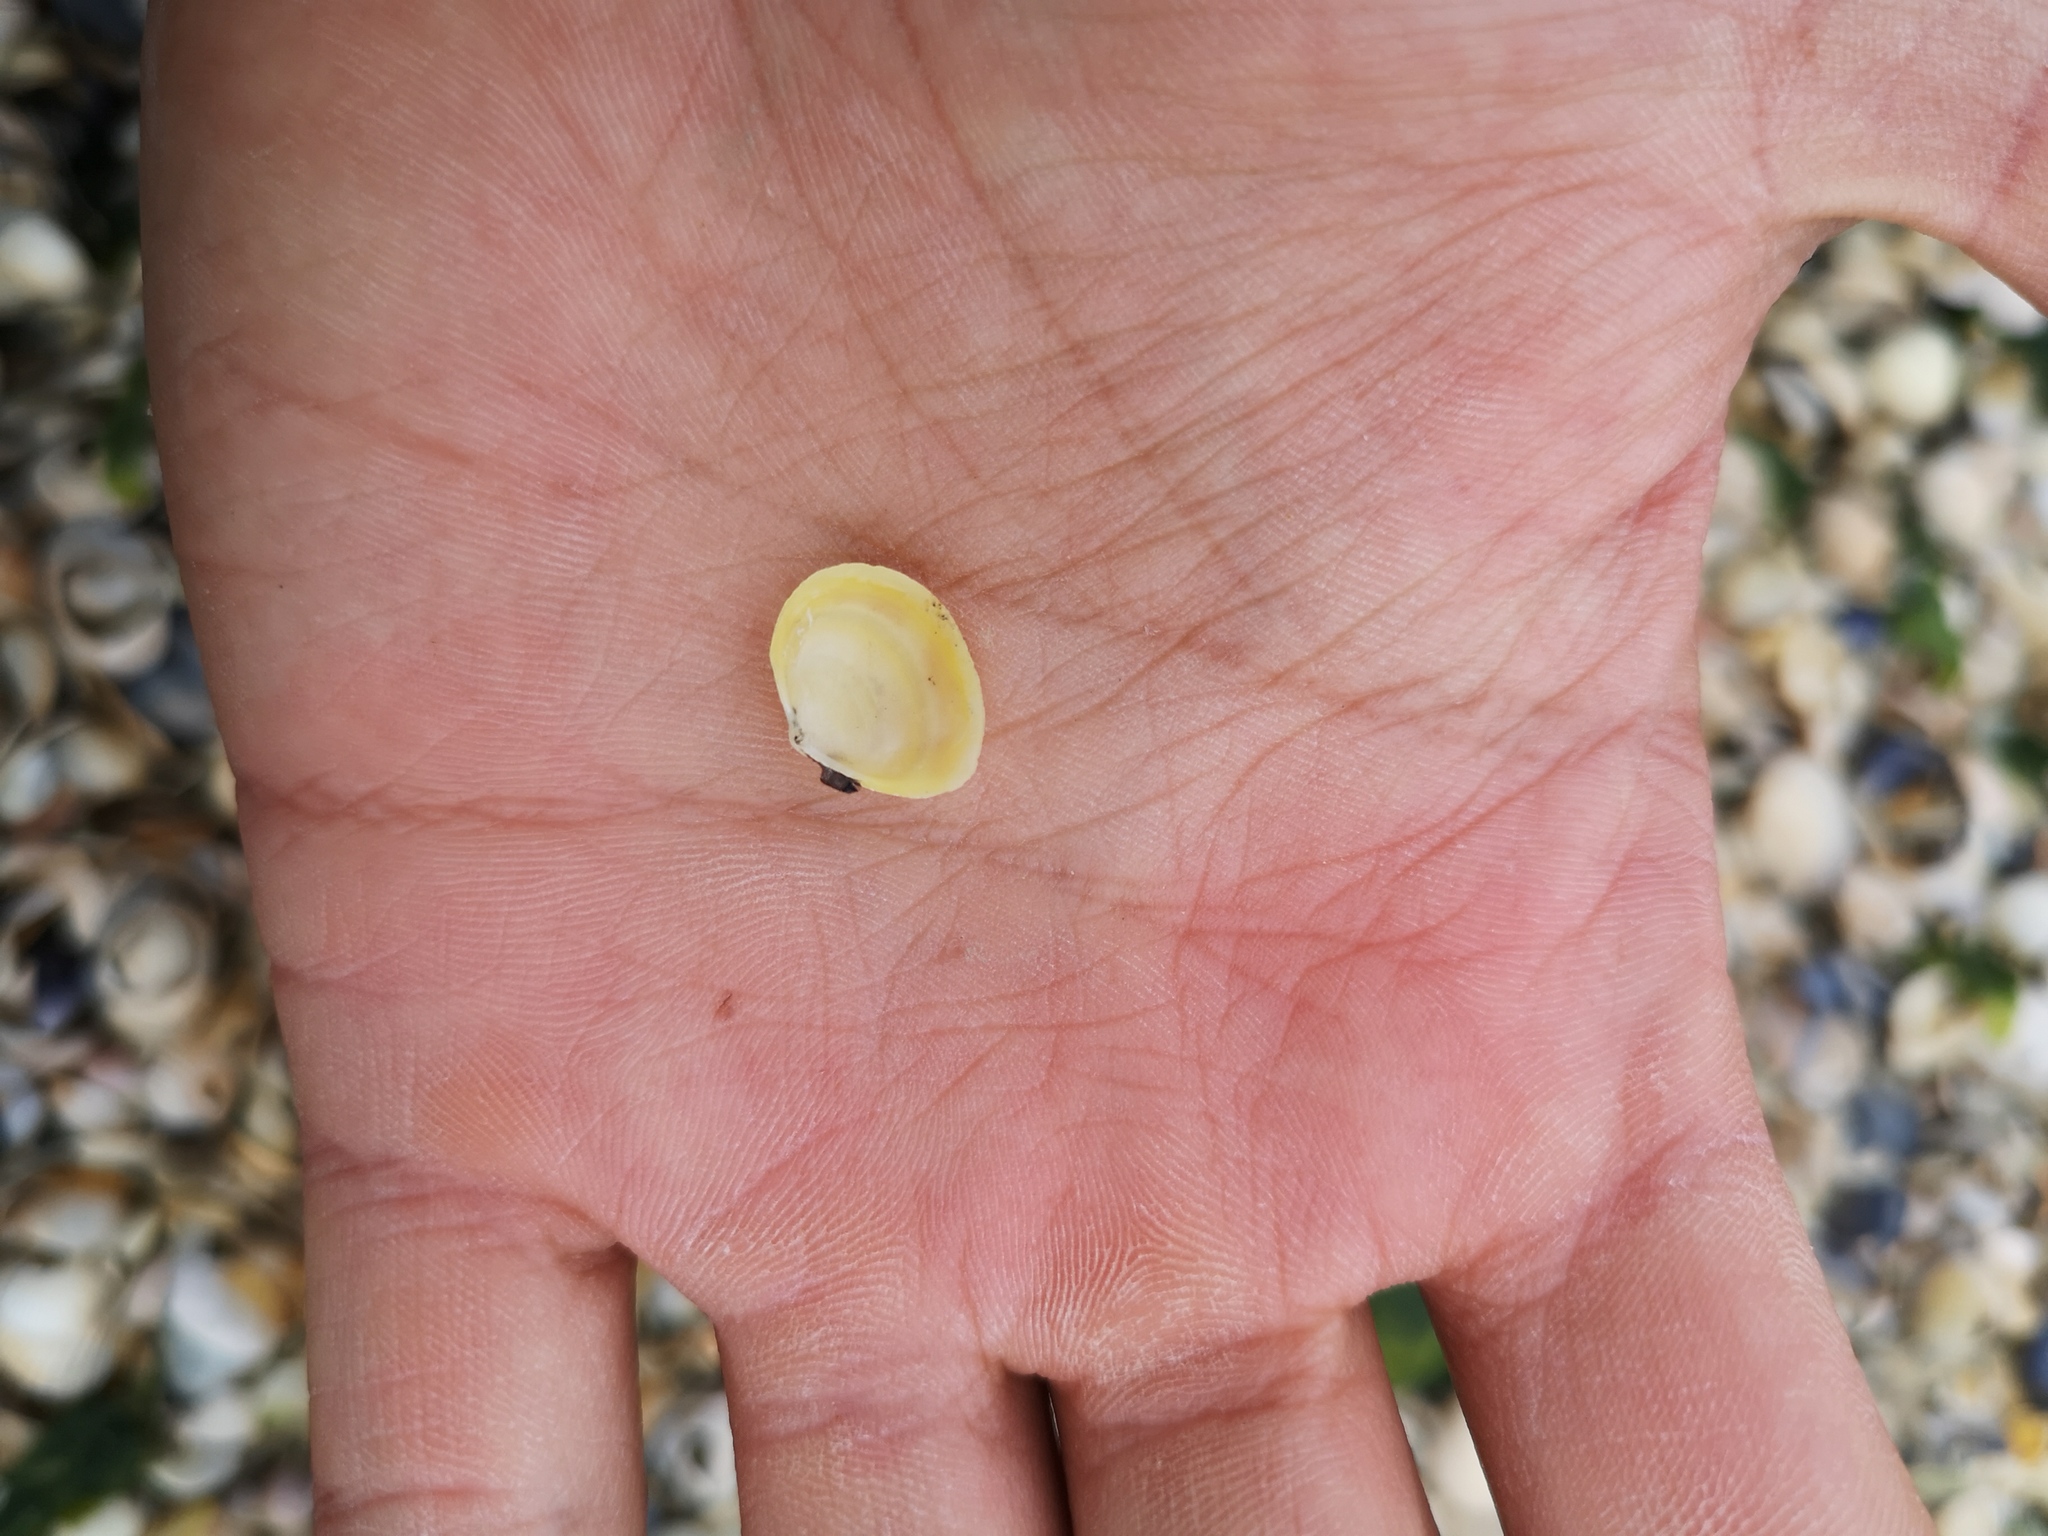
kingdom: Animalia
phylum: Mollusca
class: Bivalvia
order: Cardiida
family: Tellinidae
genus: Macoma
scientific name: Macoma balthica
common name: Baltic tellin
